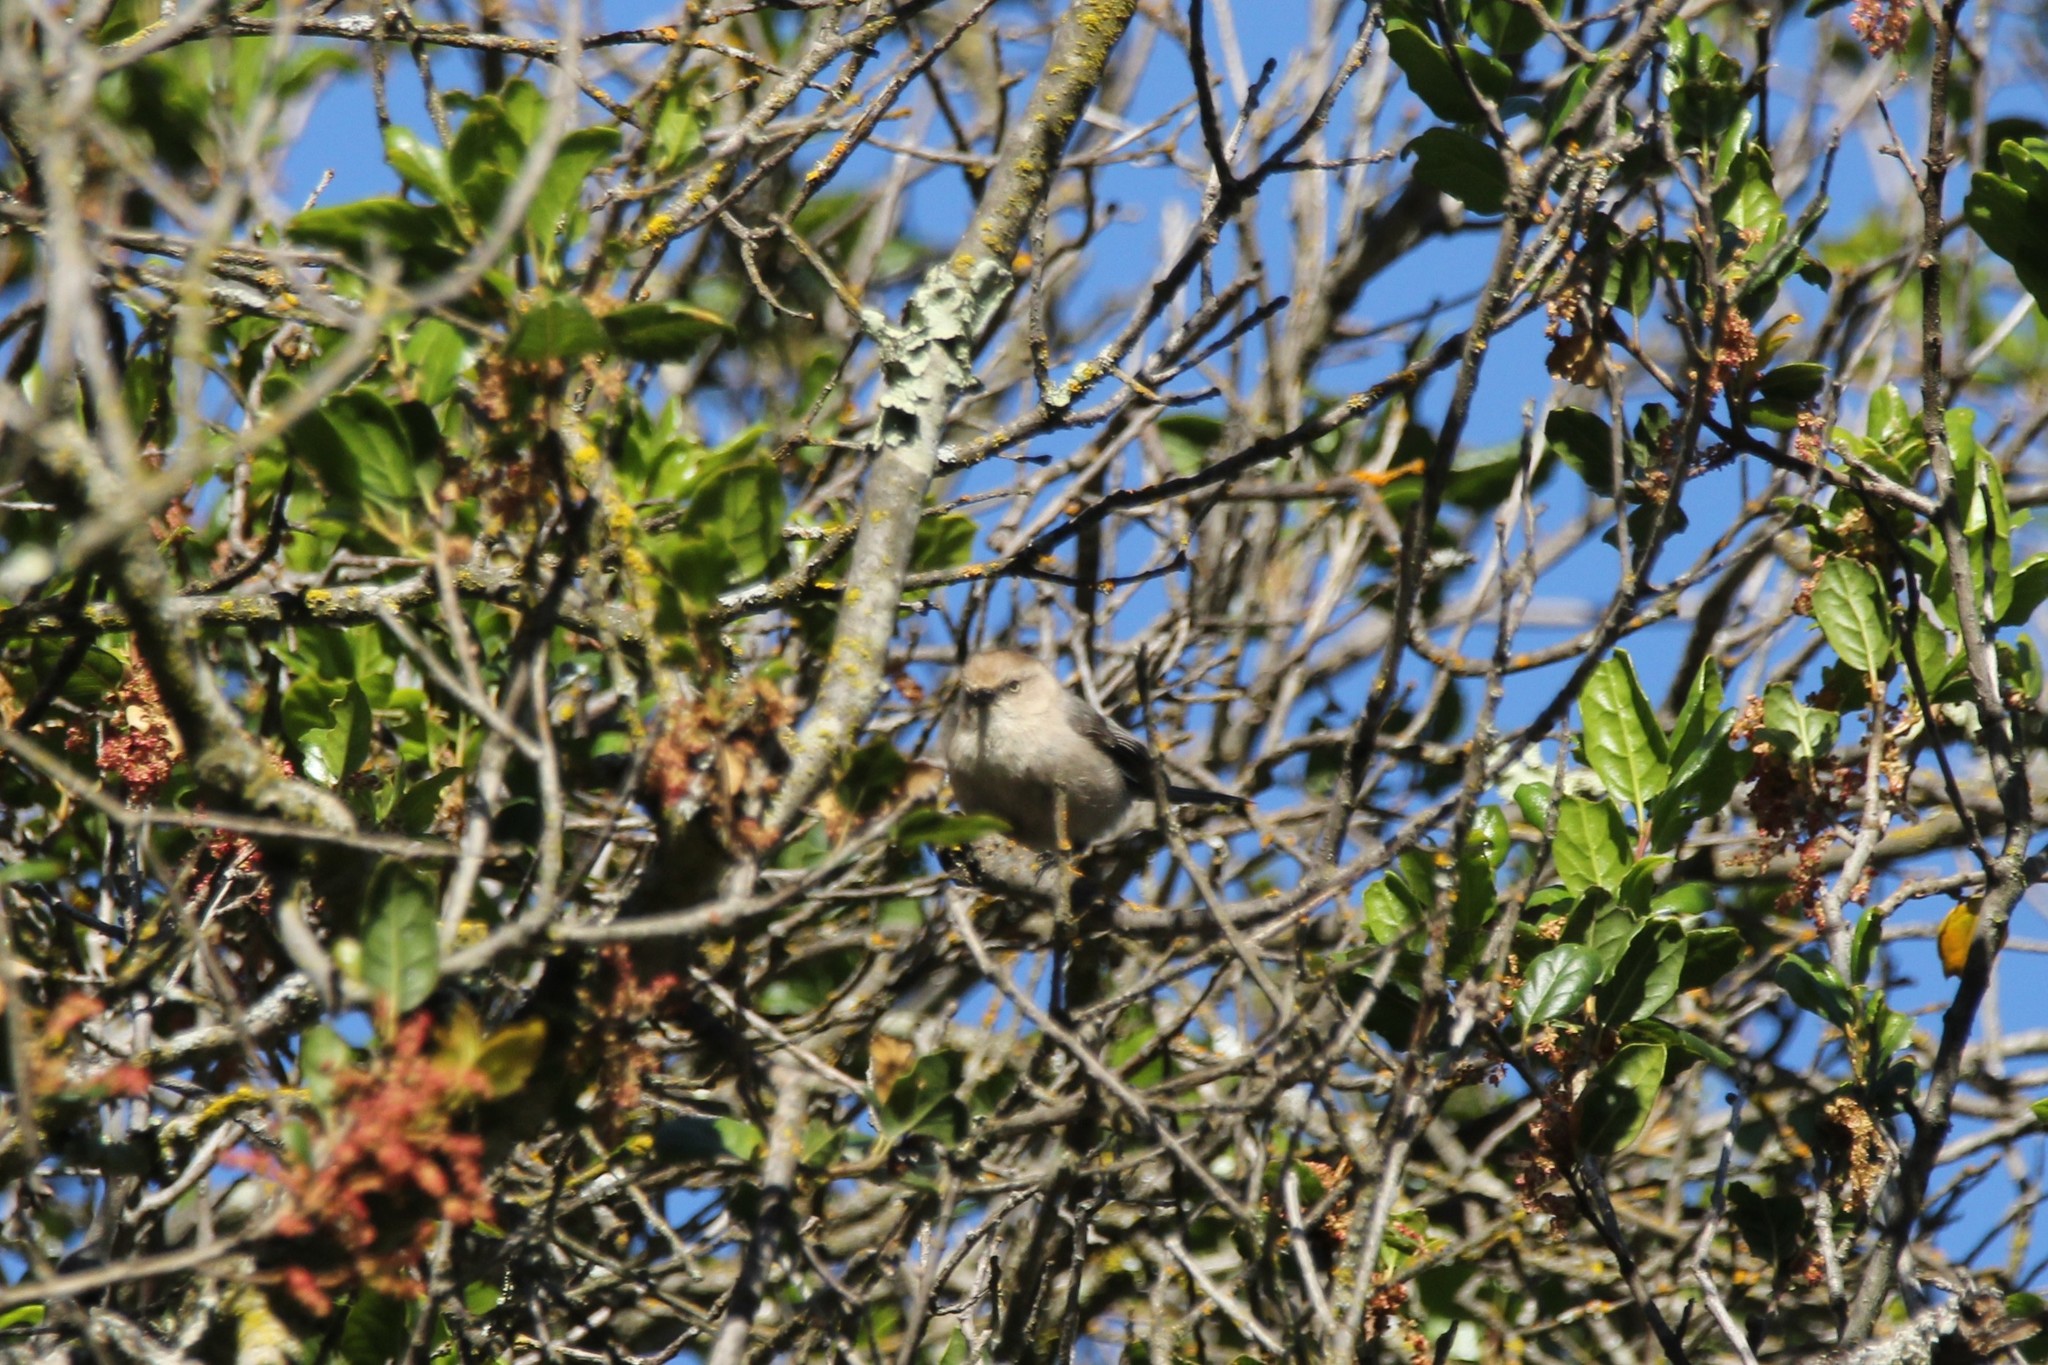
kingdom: Animalia
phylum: Chordata
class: Aves
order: Passeriformes
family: Aegithalidae
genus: Psaltriparus
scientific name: Psaltriparus minimus
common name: American bushtit
